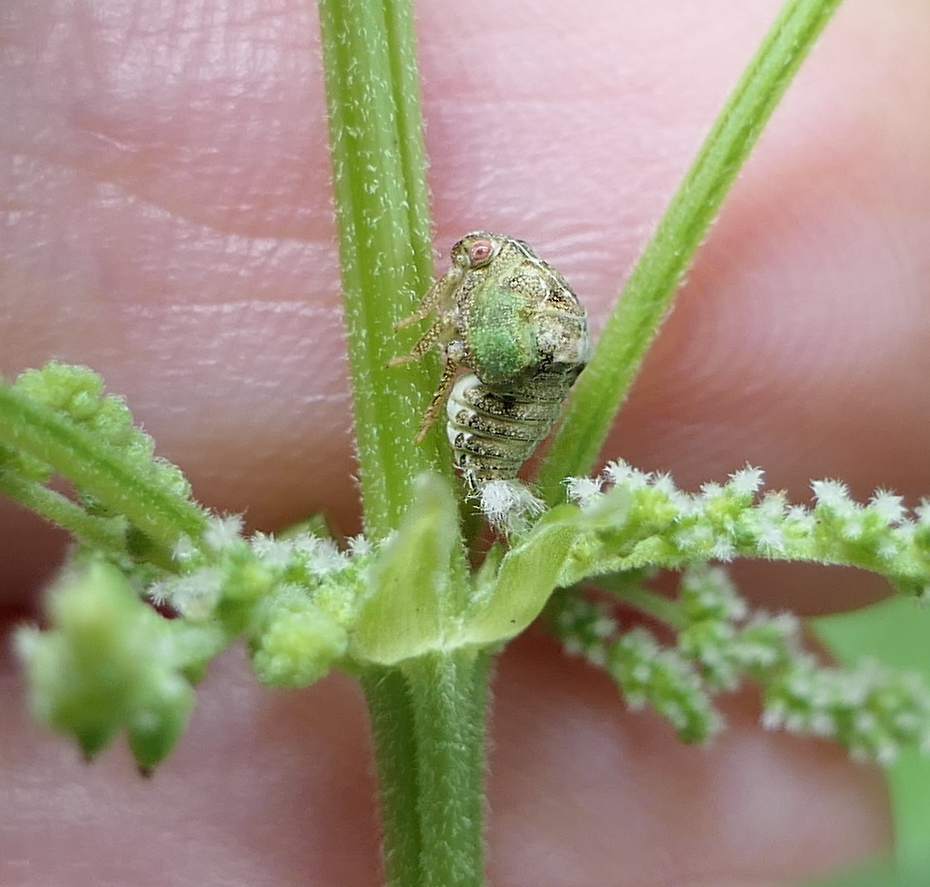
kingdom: Animalia
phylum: Arthropoda
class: Insecta
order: Hemiptera
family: Acanaloniidae
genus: Acanalonia
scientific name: Acanalonia conica
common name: Green cone-headed planthopper
